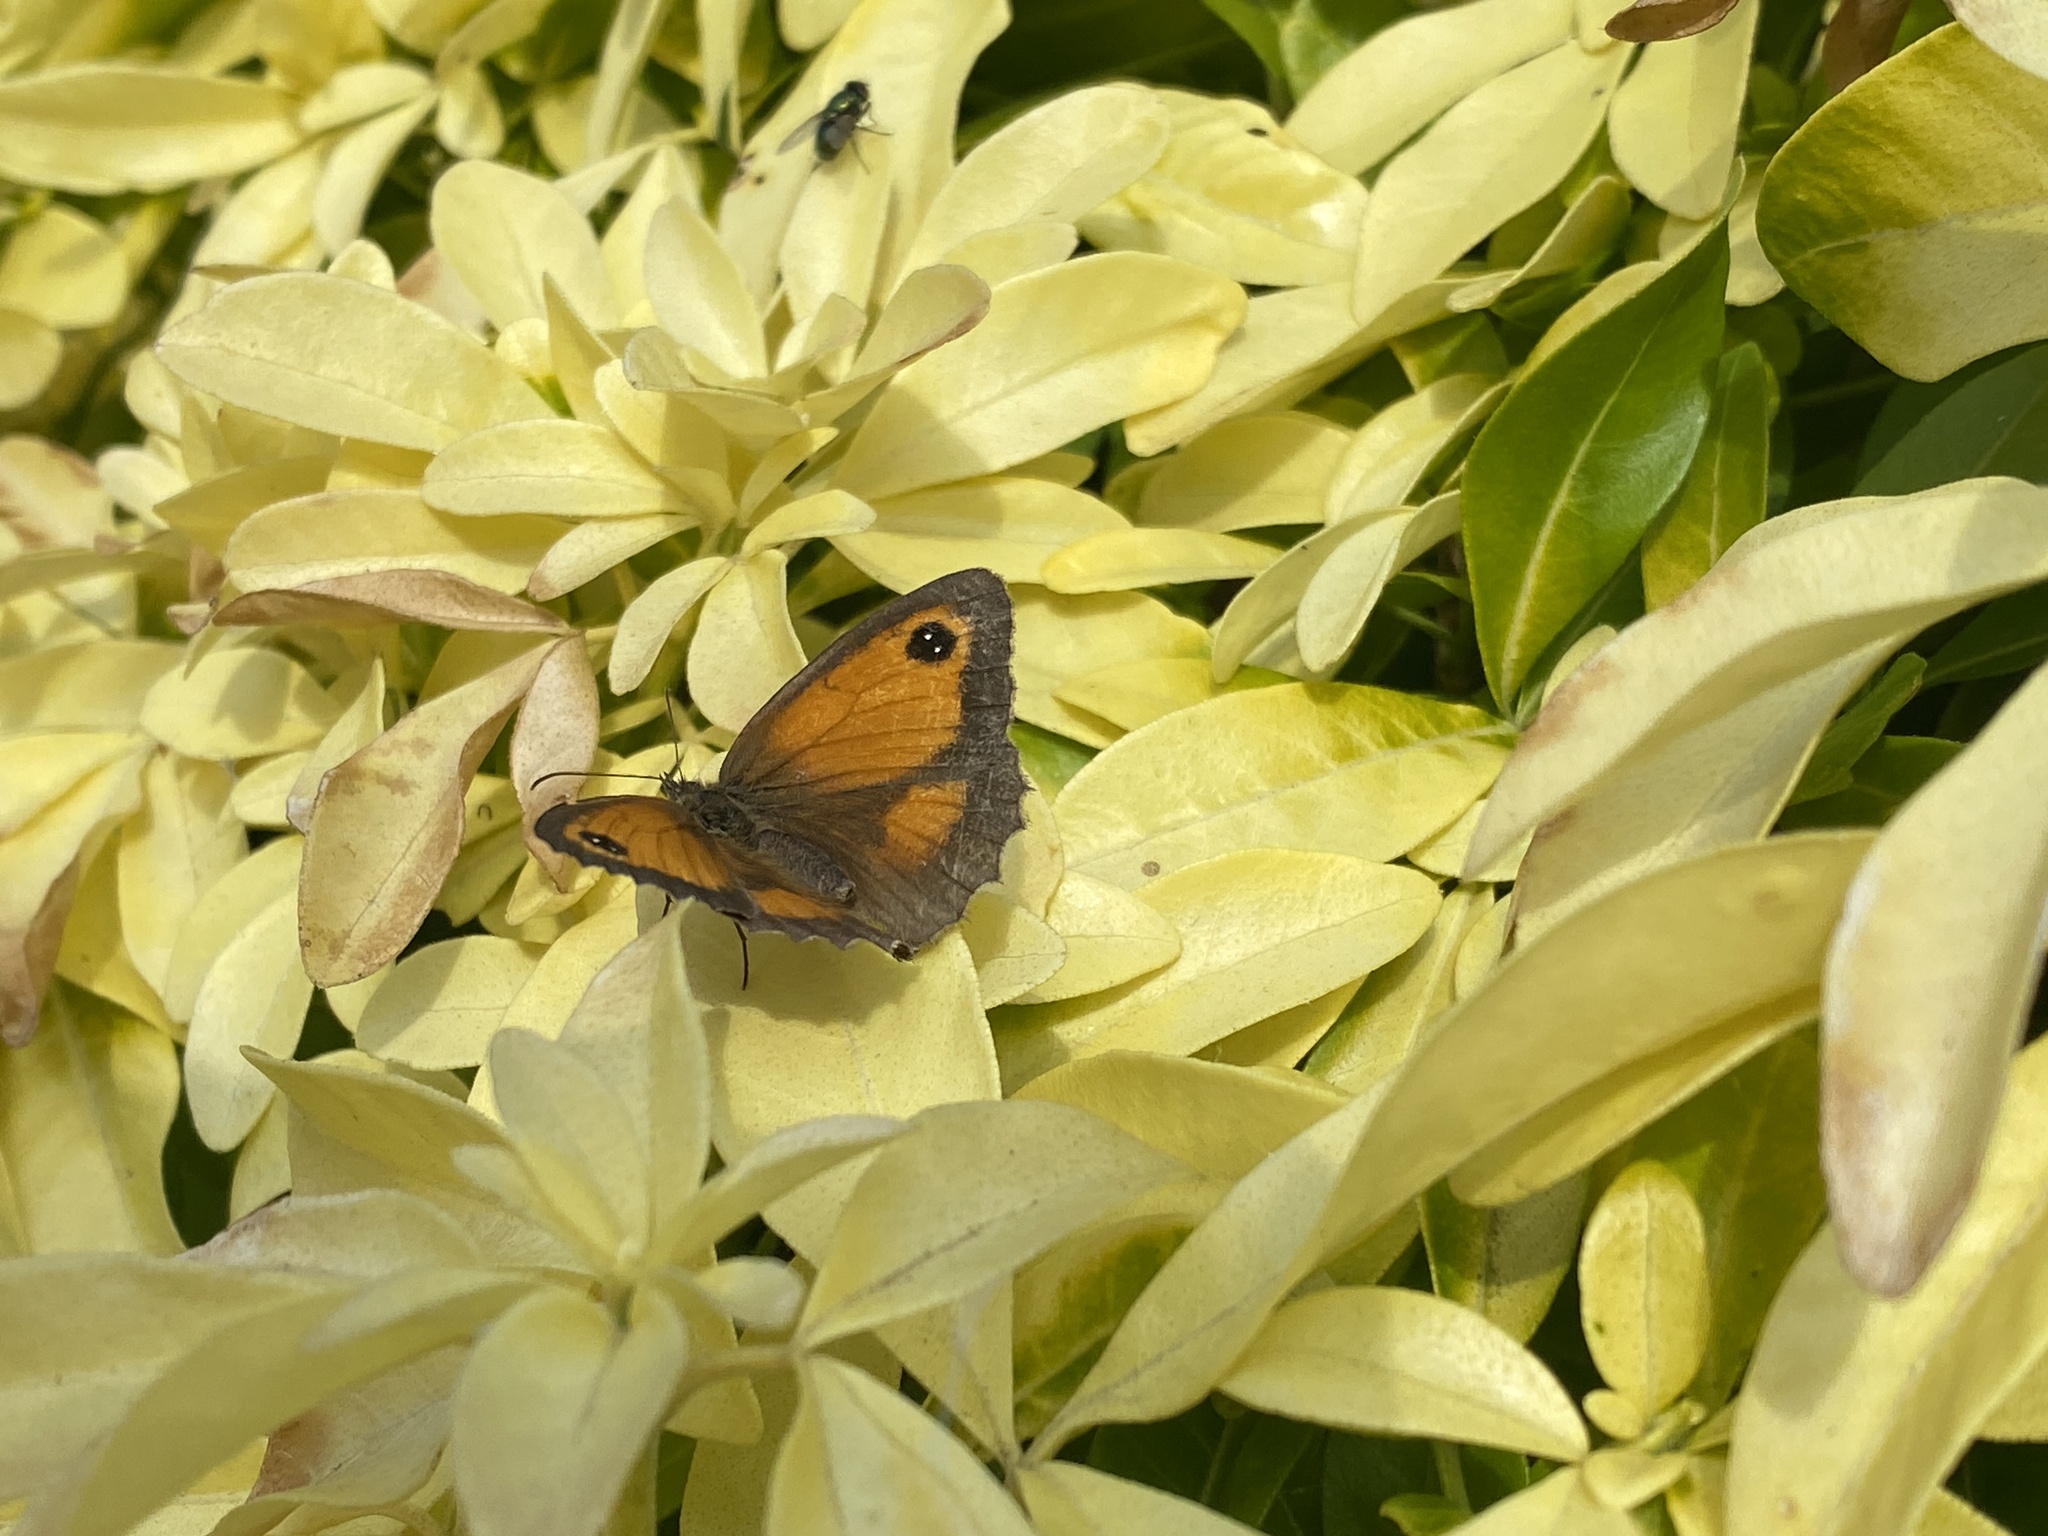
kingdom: Animalia
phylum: Arthropoda
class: Insecta
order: Lepidoptera
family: Nymphalidae
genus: Pyronia
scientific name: Pyronia tithonus
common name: Gatekeeper
